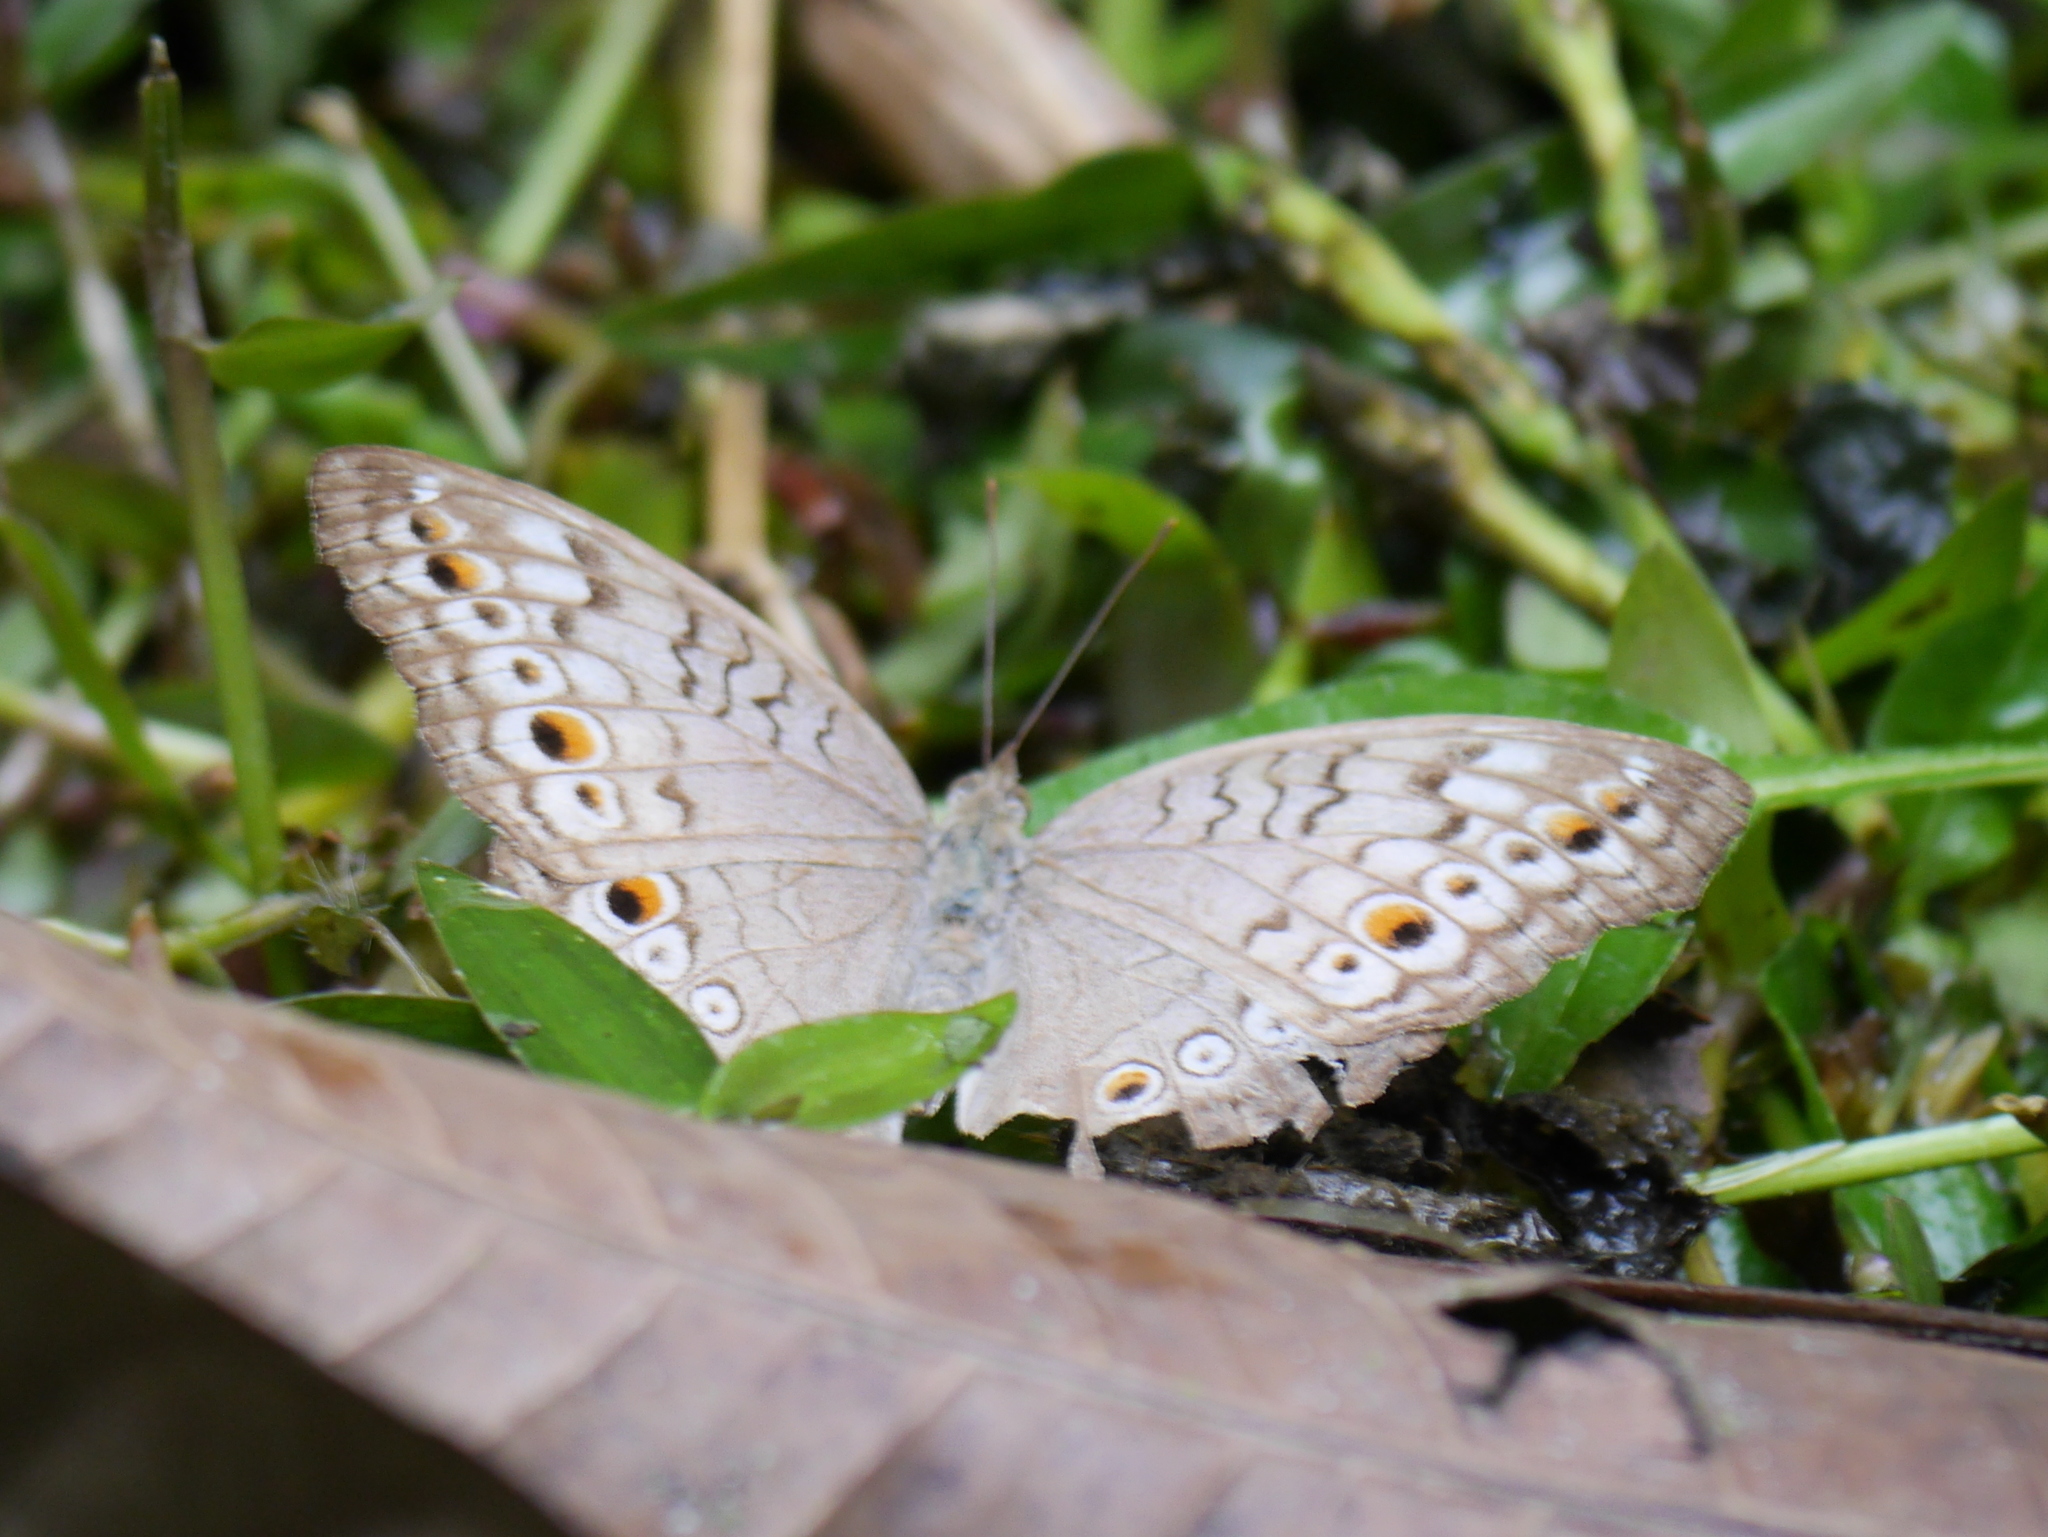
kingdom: Animalia
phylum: Arthropoda
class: Insecta
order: Lepidoptera
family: Nymphalidae
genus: Junonia
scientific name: Junonia atlites
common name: Grey pansy
